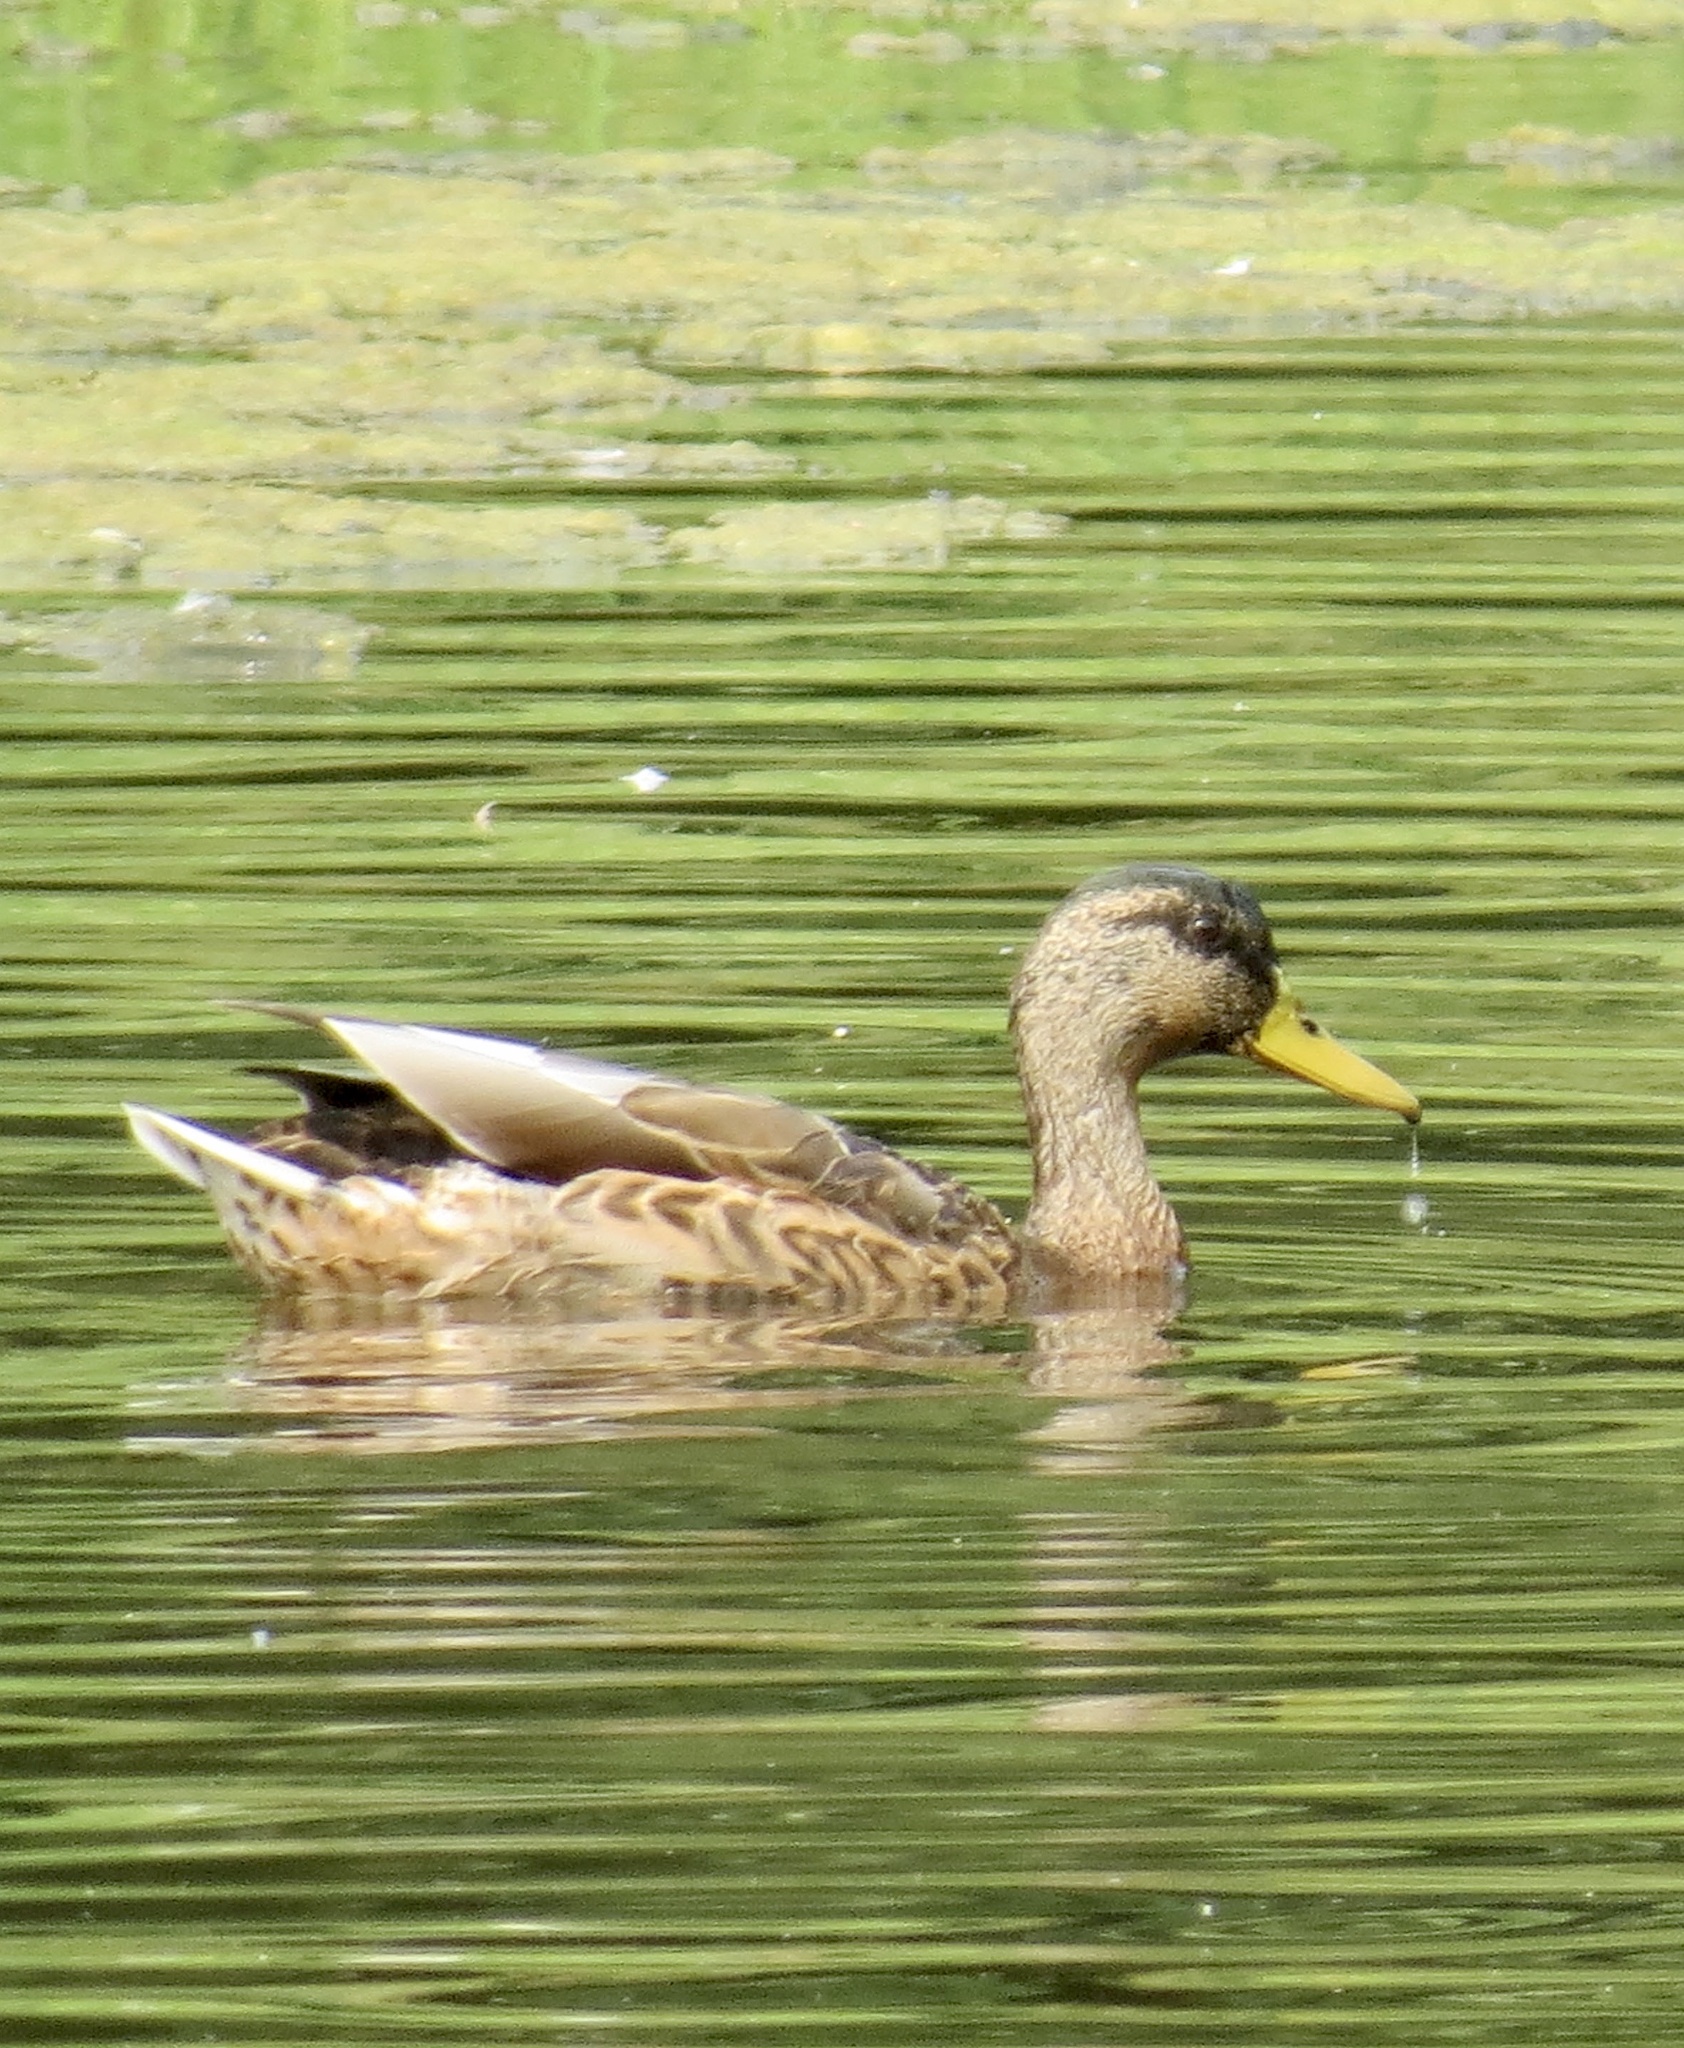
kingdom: Animalia
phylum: Chordata
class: Aves
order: Anseriformes
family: Anatidae
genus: Anas
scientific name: Anas platyrhynchos
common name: Mallard
